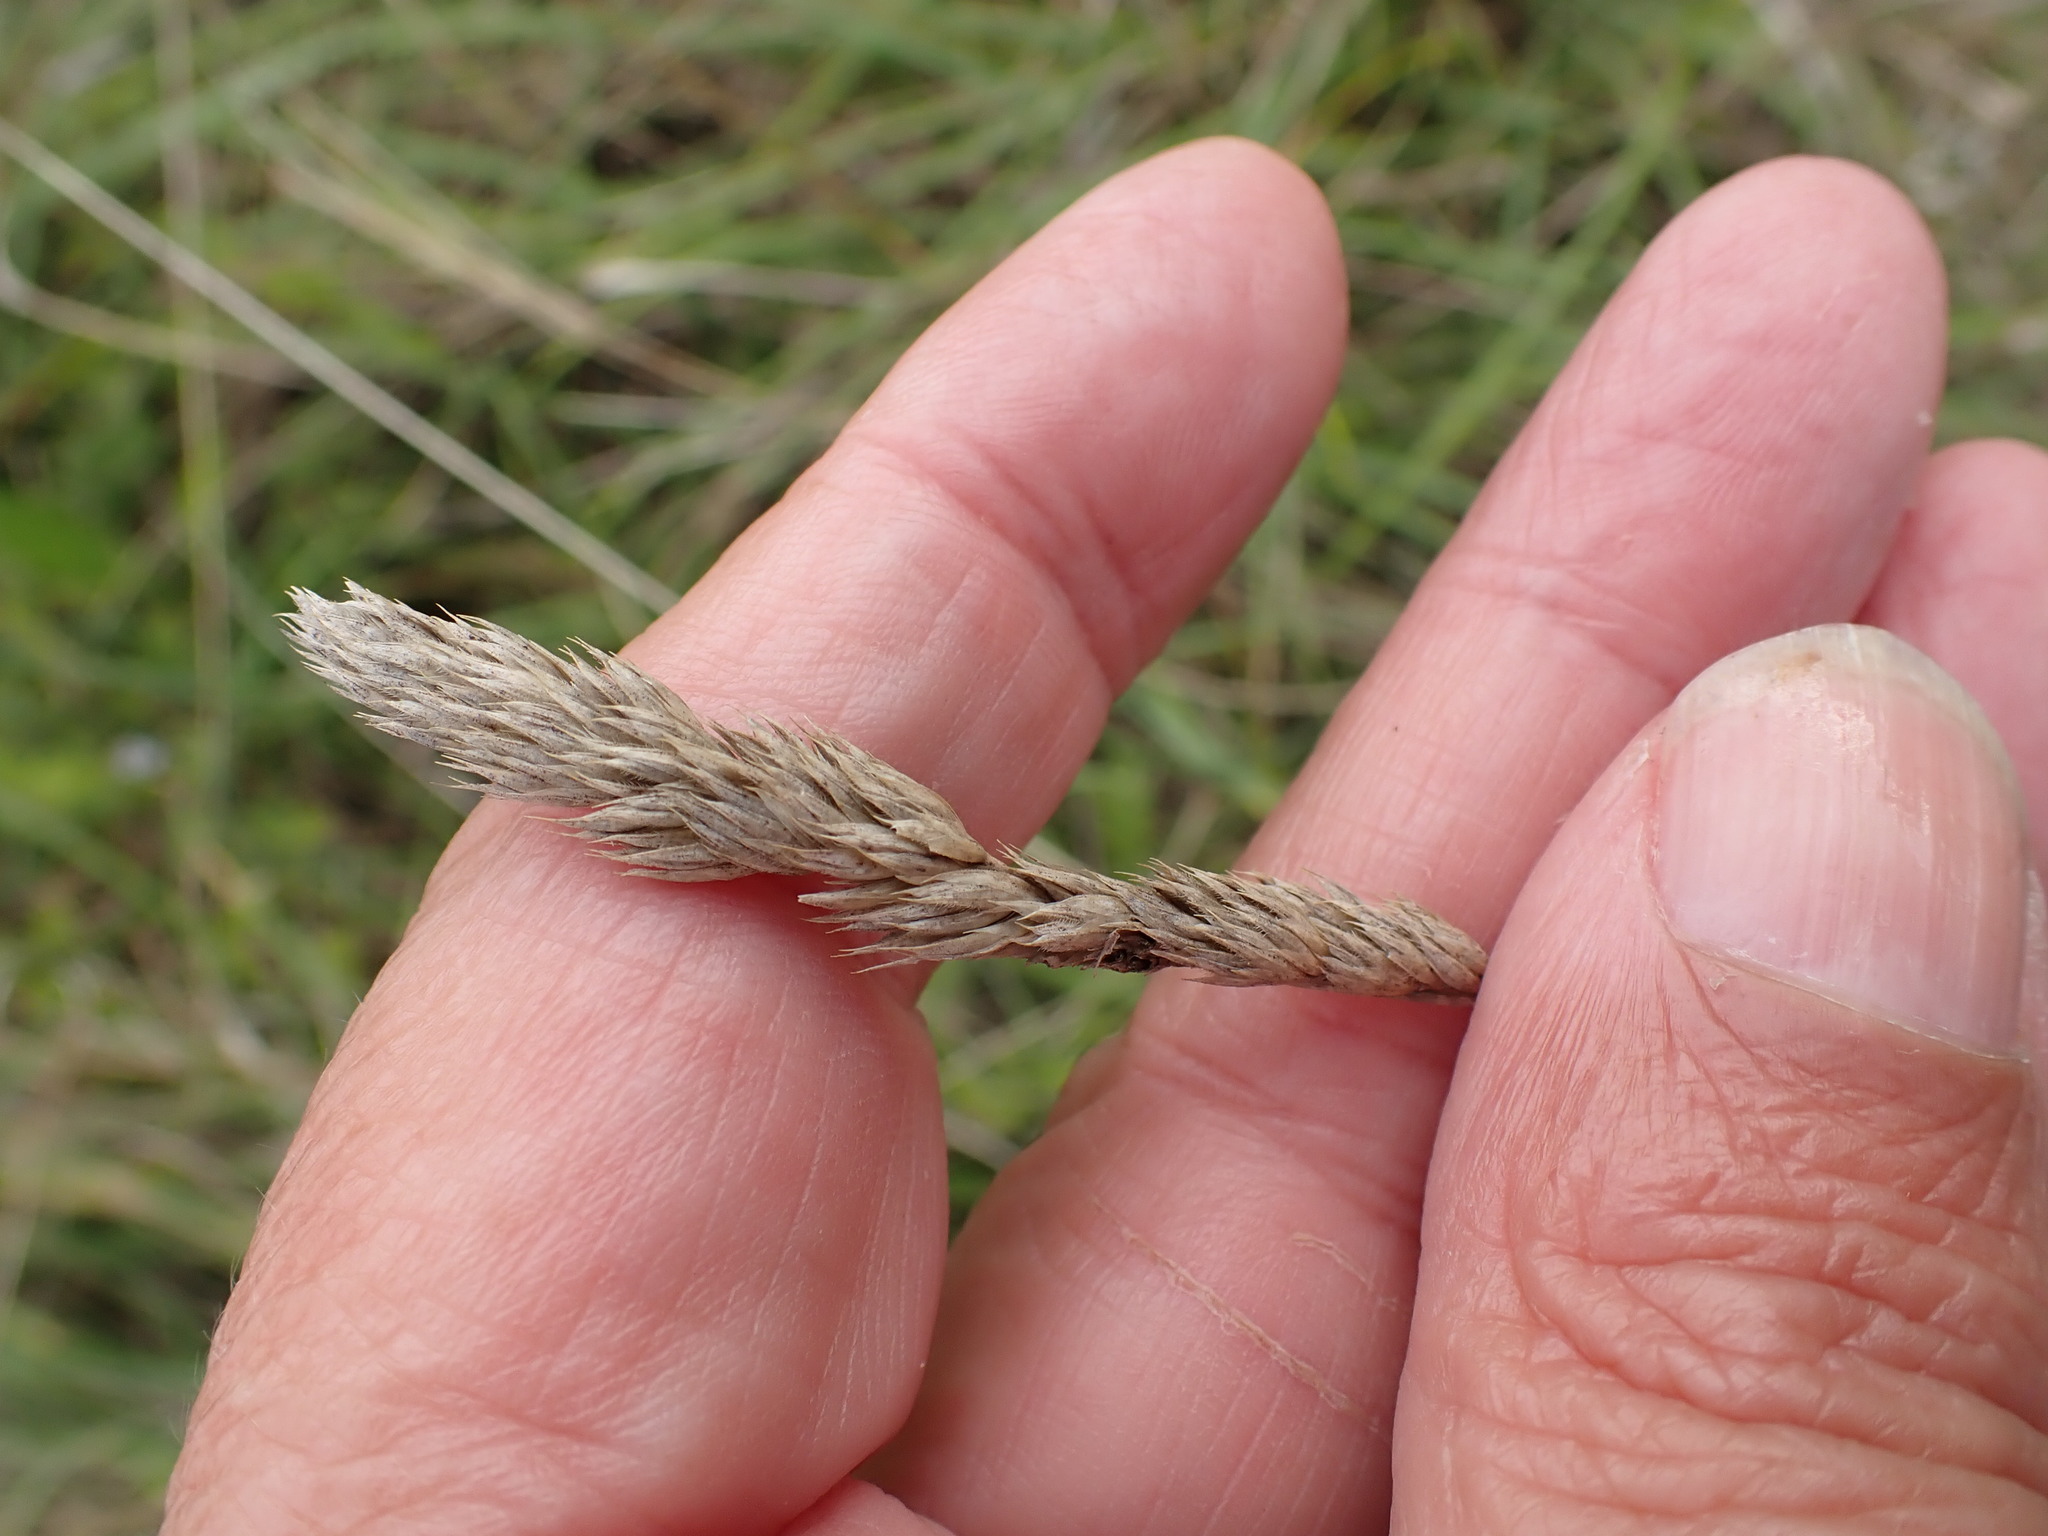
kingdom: Plantae
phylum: Tracheophyta
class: Liliopsida
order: Poales
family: Poaceae
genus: Dactylis
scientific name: Dactylis glomerata
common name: Orchardgrass
